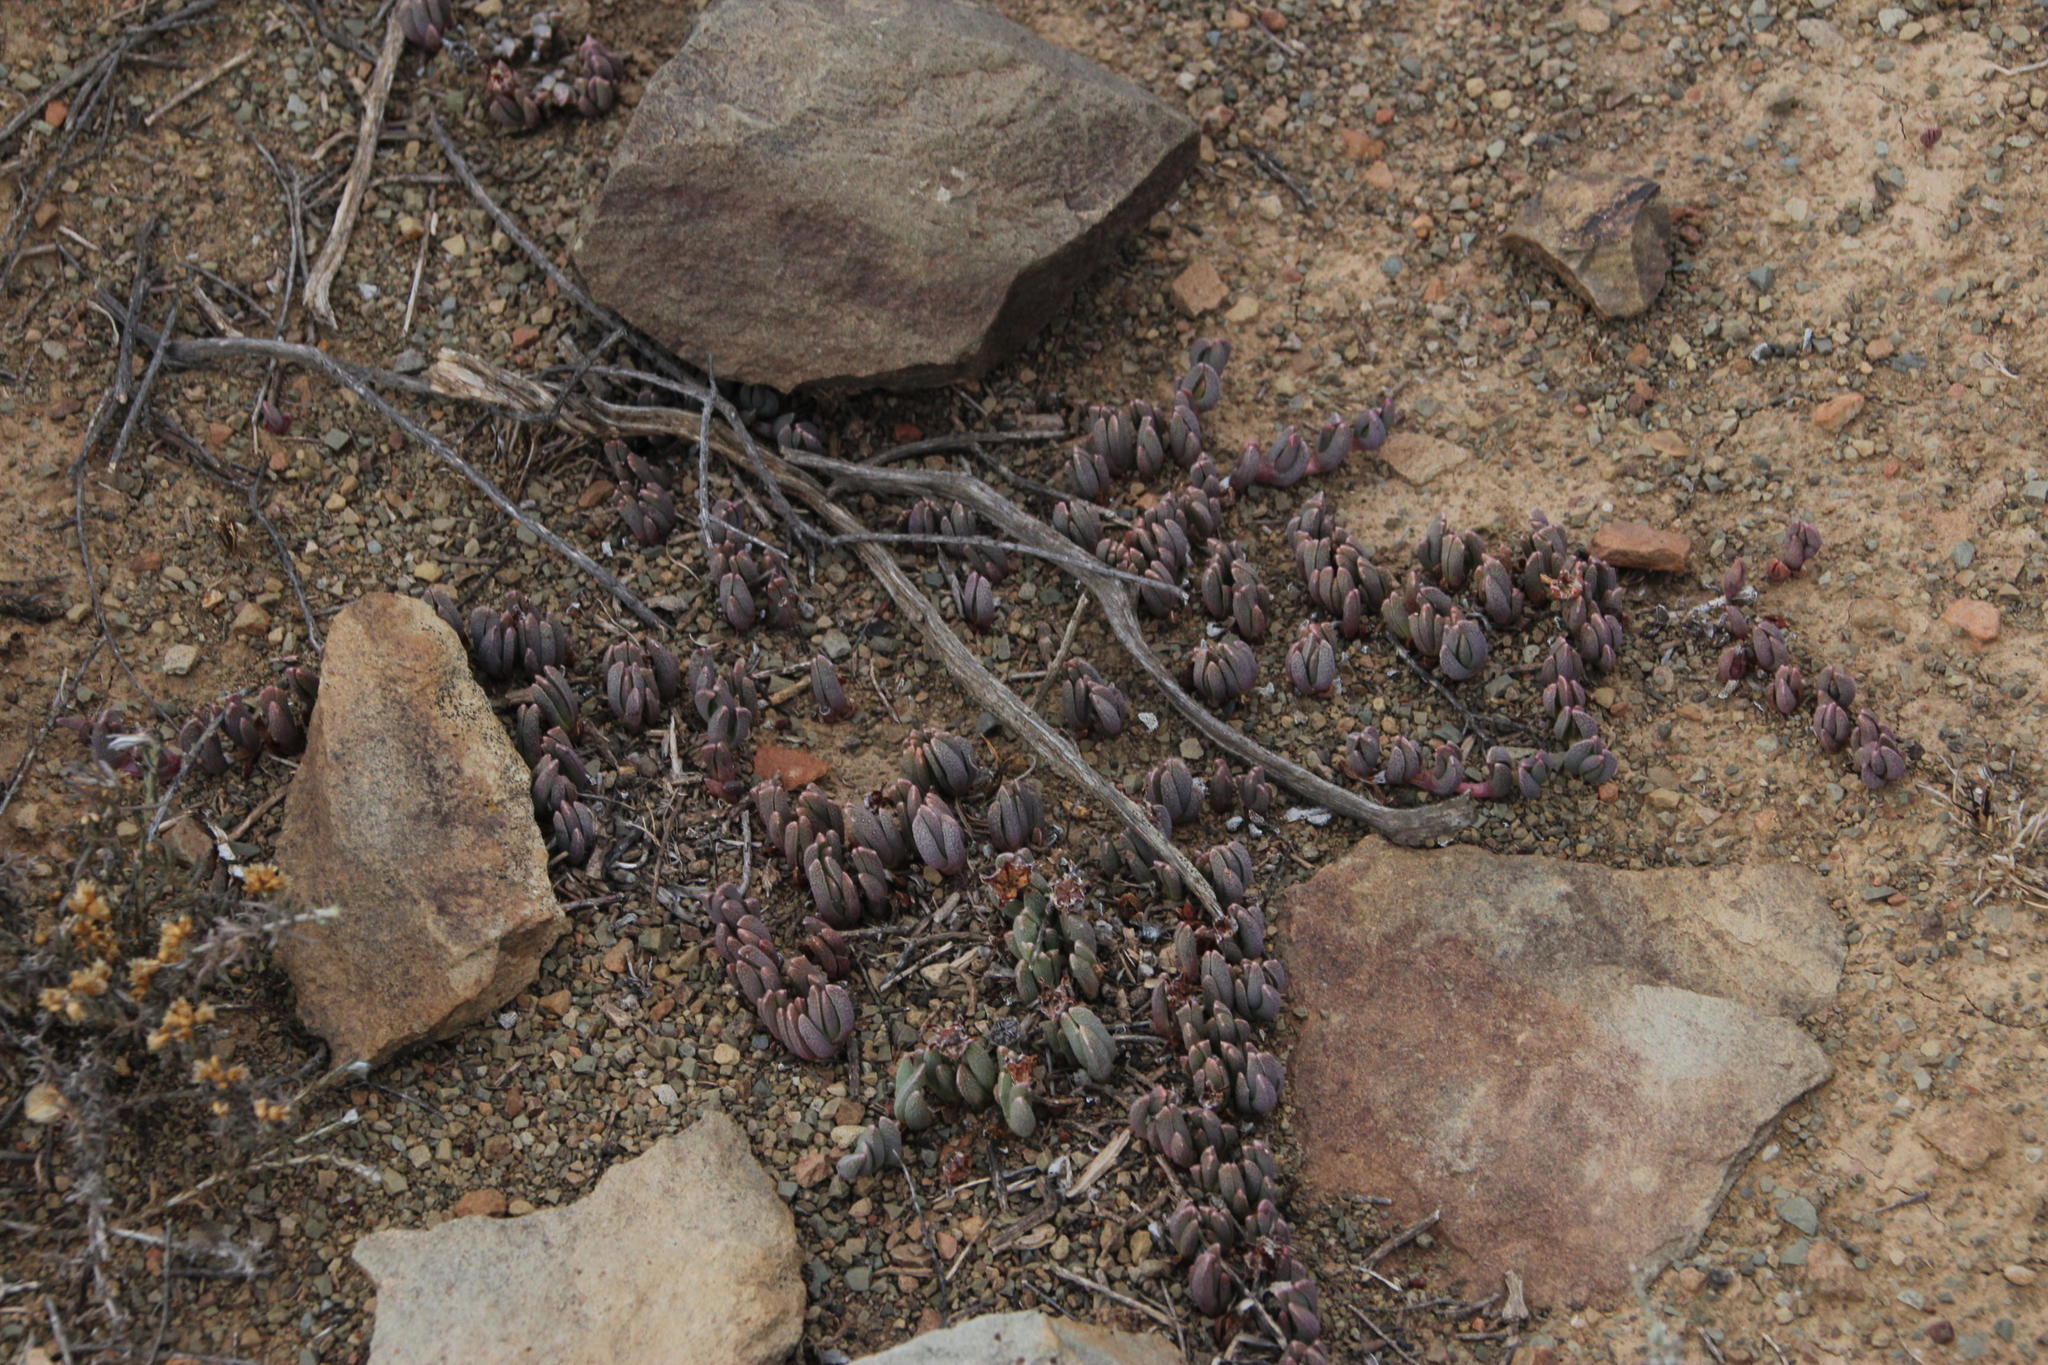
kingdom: Plantae
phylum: Tracheophyta
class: Magnoliopsida
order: Caryophyllales
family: Aizoaceae
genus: Dracophilus
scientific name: Dracophilus Chasmatophyllum musculinum
